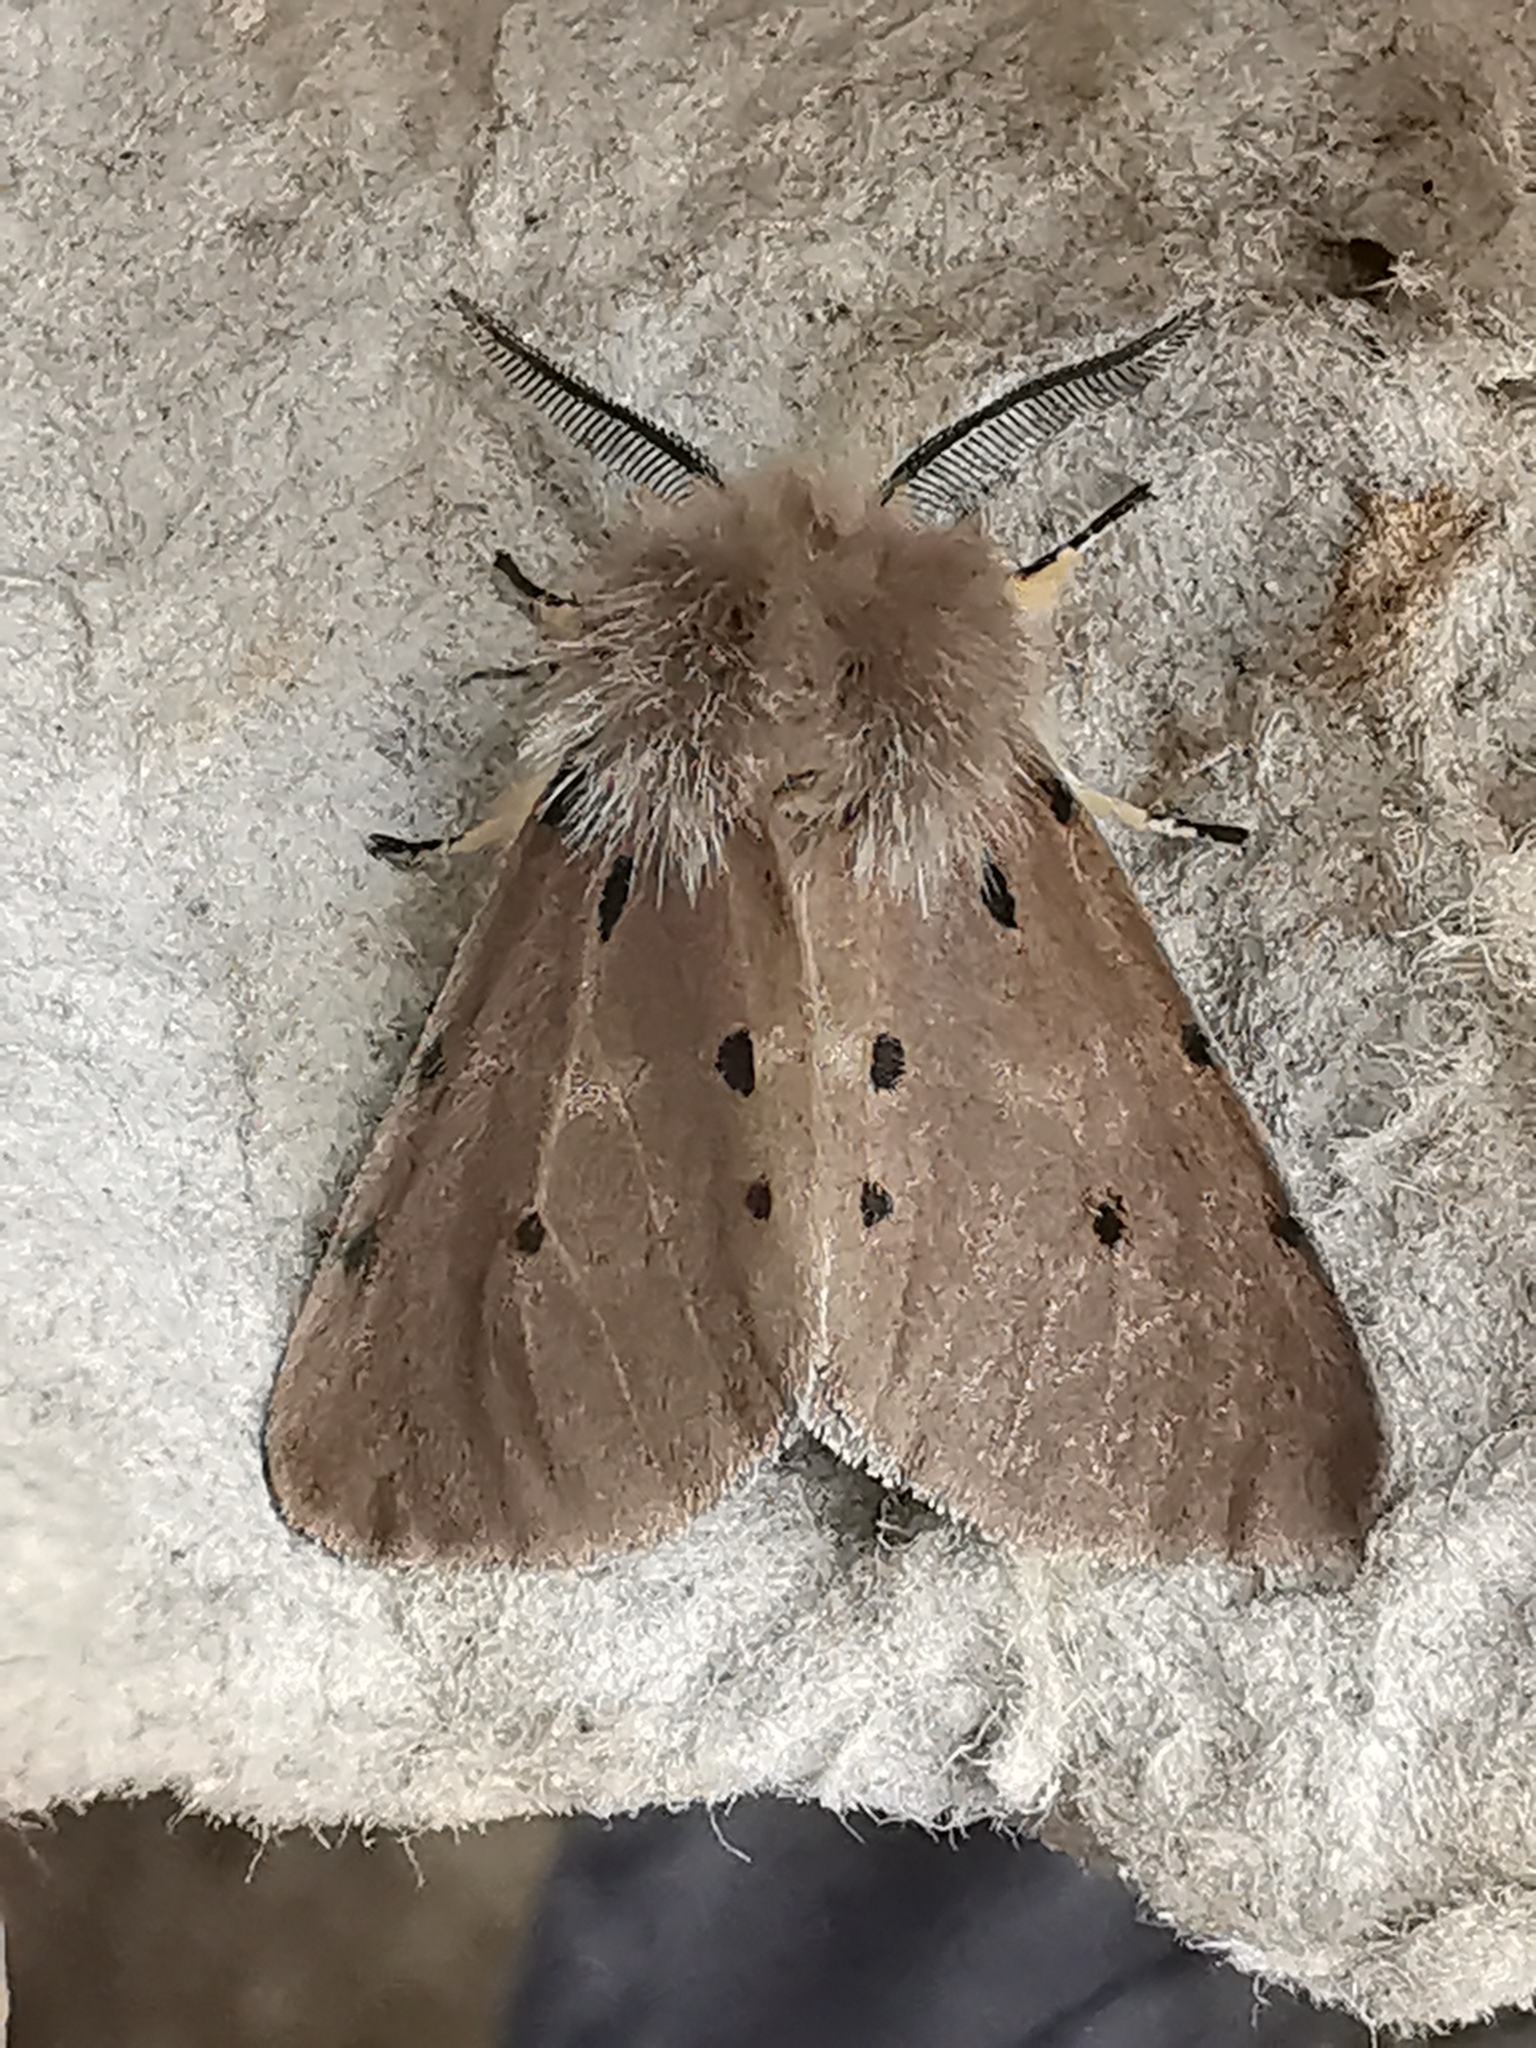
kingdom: Animalia
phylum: Arthropoda
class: Insecta
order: Lepidoptera
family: Erebidae
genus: Diaphora
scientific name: Diaphora mendica
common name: Muslin moth
